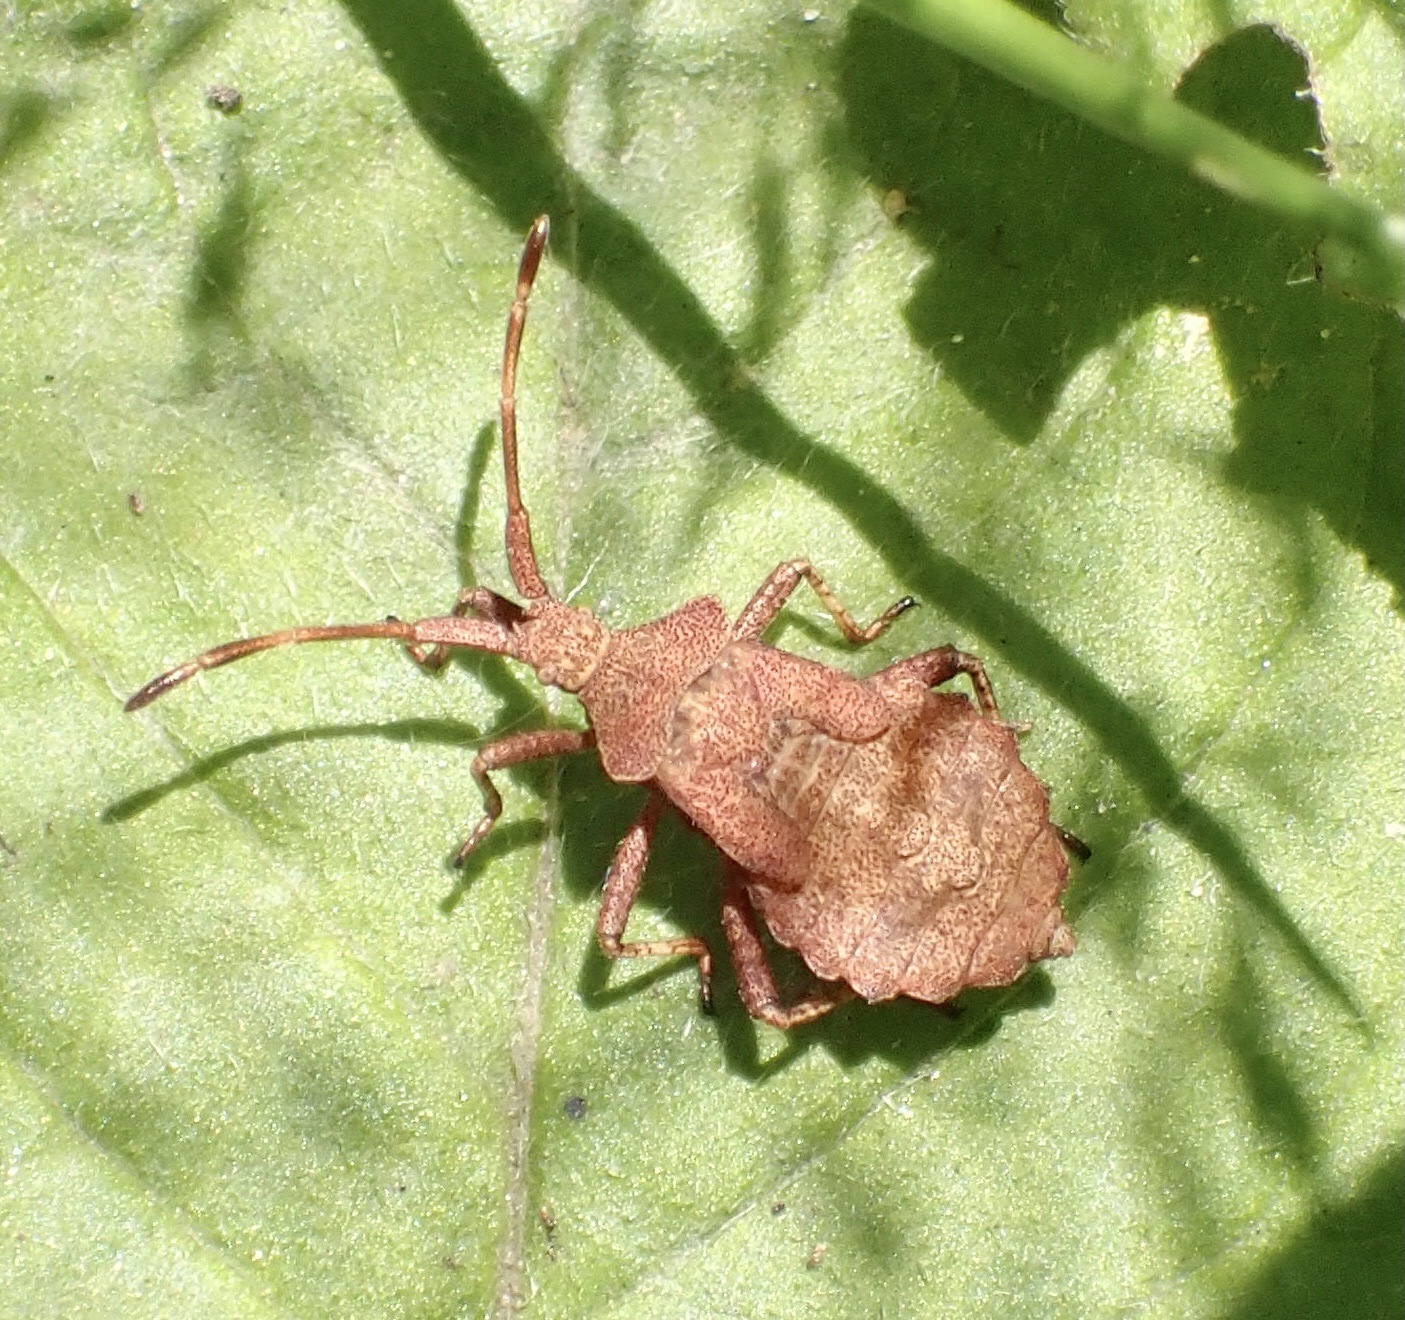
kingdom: Animalia
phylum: Arthropoda
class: Insecta
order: Hemiptera
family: Coreidae
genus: Coreus
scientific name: Coreus marginatus
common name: Dock bug
